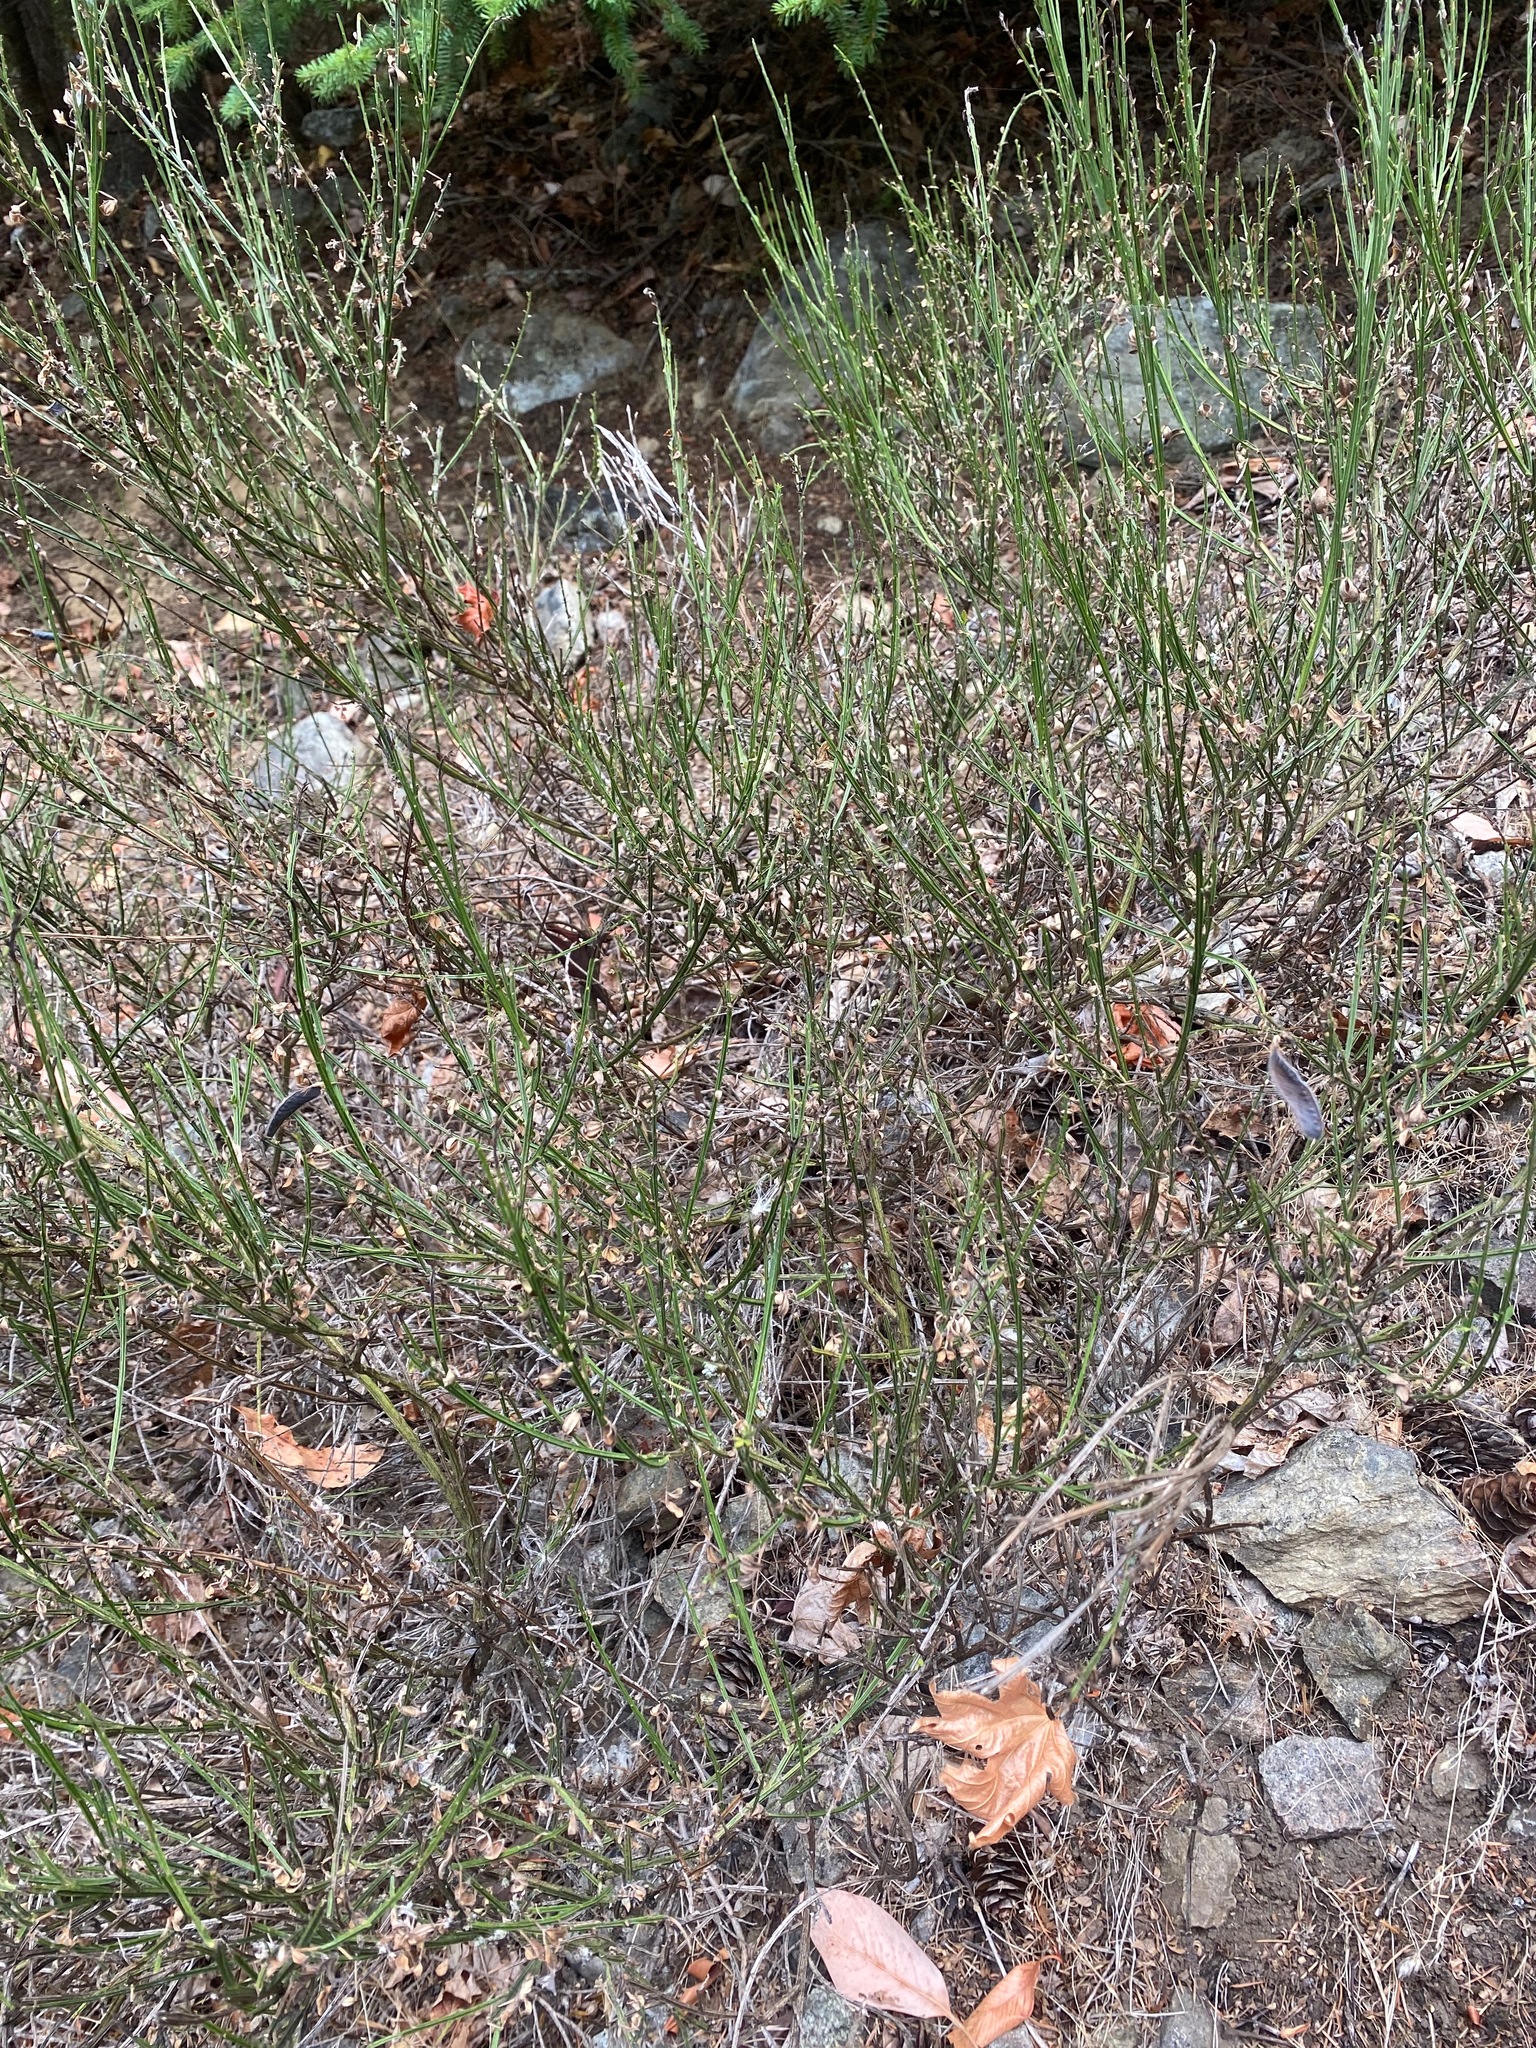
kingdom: Plantae
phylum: Tracheophyta
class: Magnoliopsida
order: Fabales
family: Fabaceae
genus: Cytisus
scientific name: Cytisus scoparius
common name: Scotch broom
